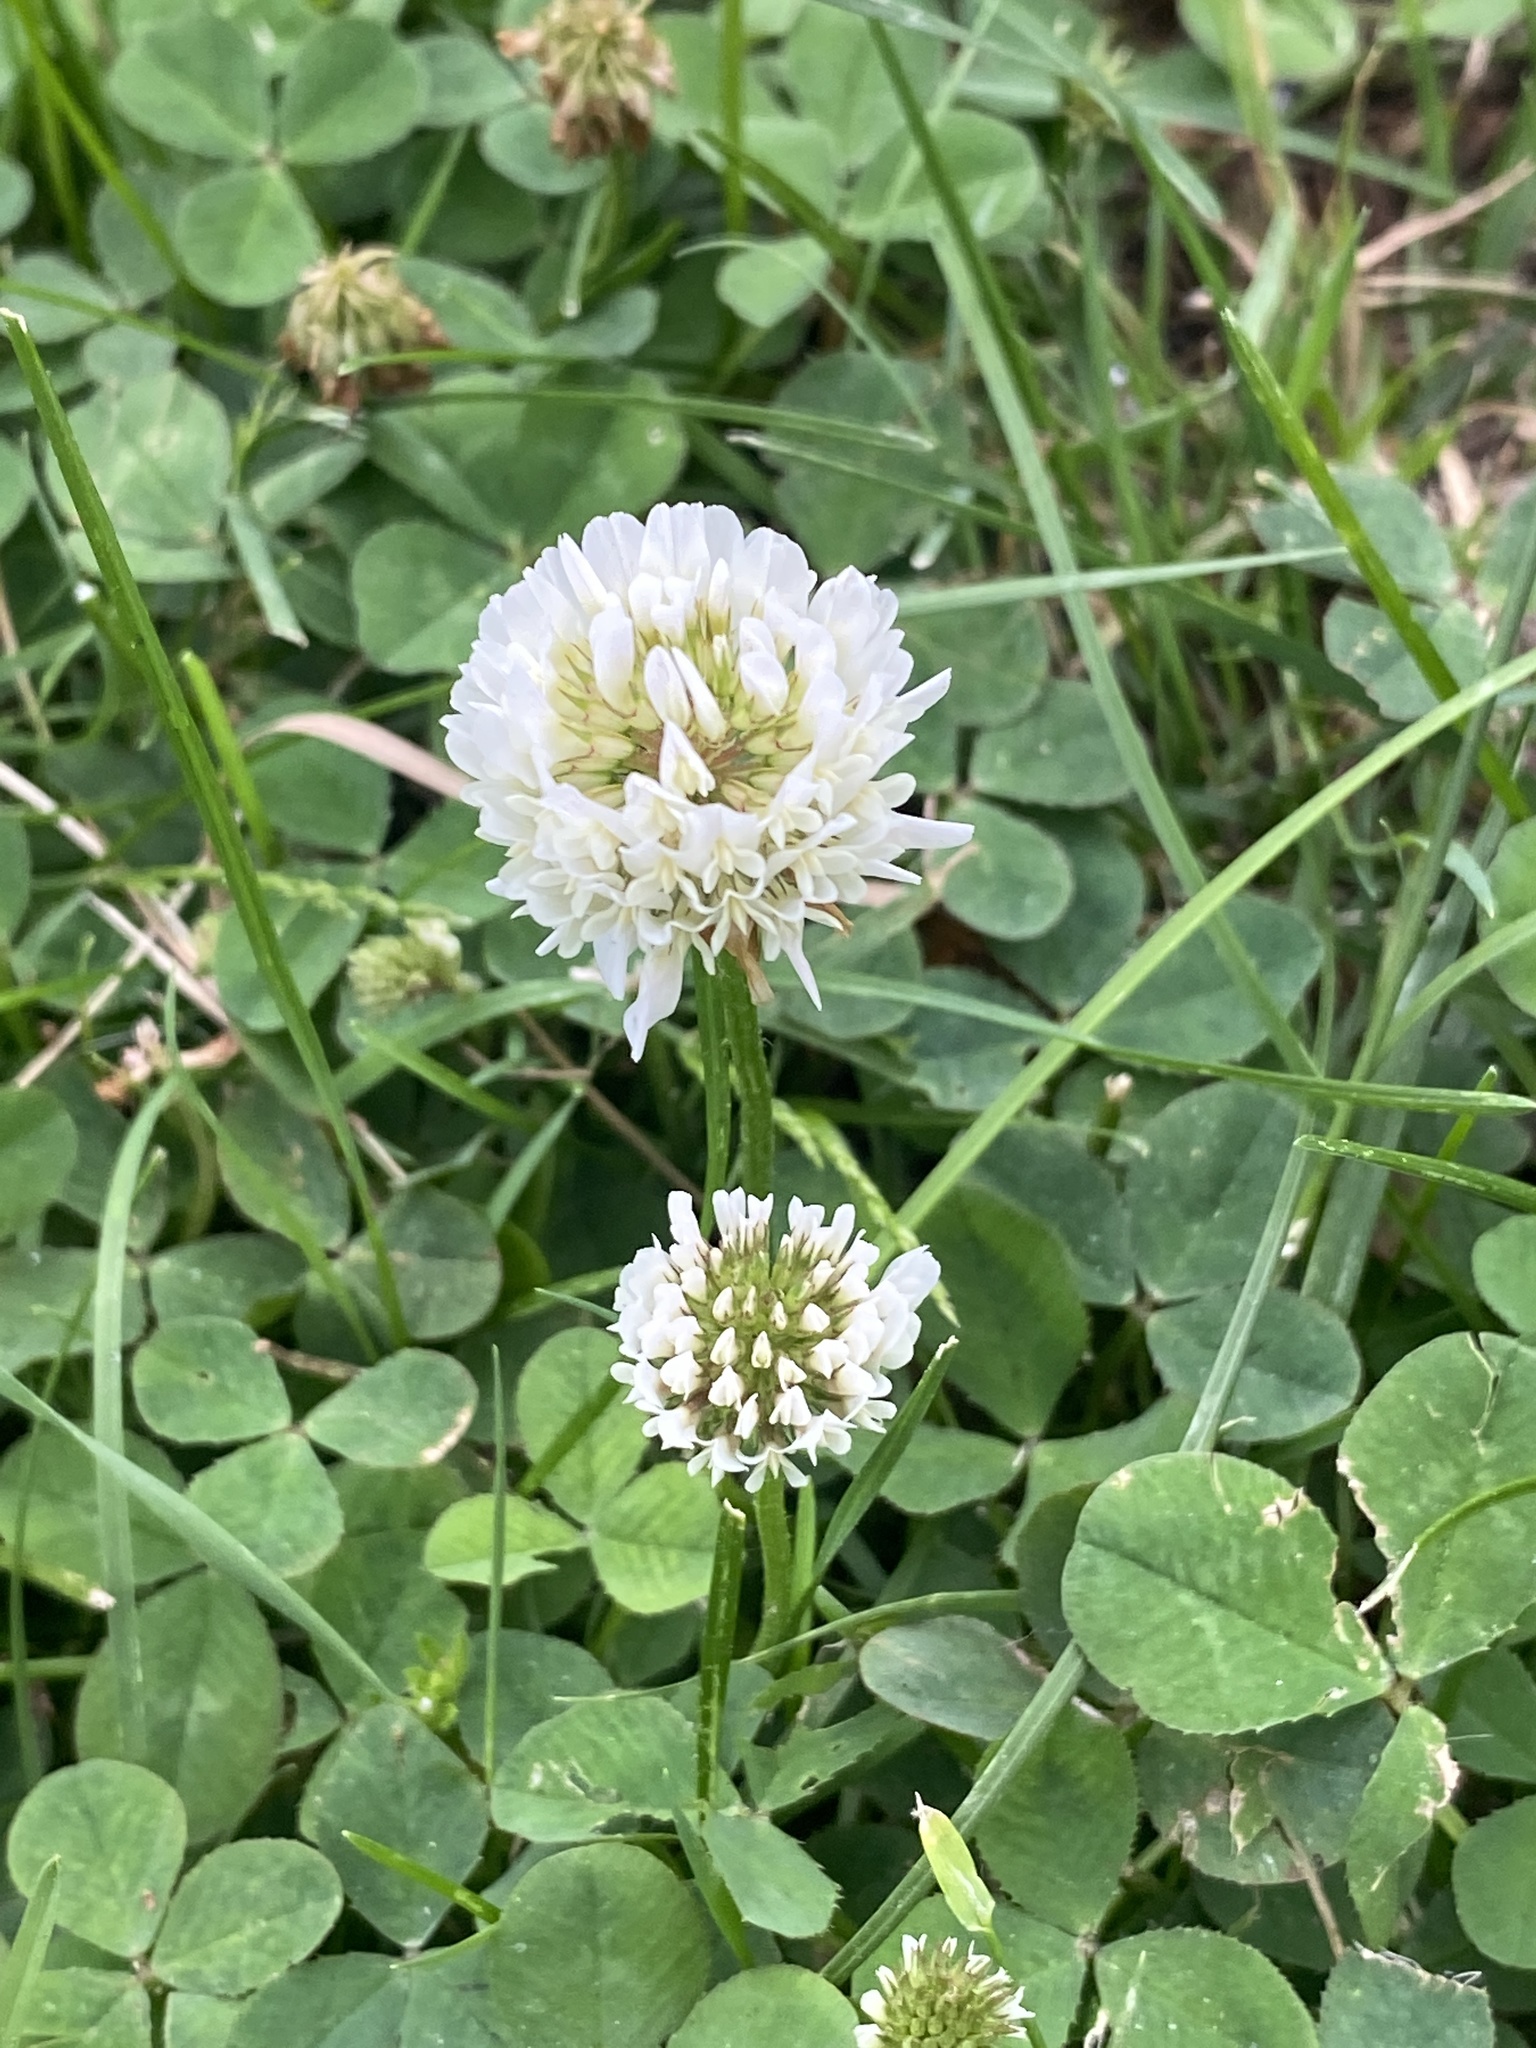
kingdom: Plantae
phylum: Tracheophyta
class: Magnoliopsida
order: Fabales
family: Fabaceae
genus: Trifolium
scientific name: Trifolium repens
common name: White clover
